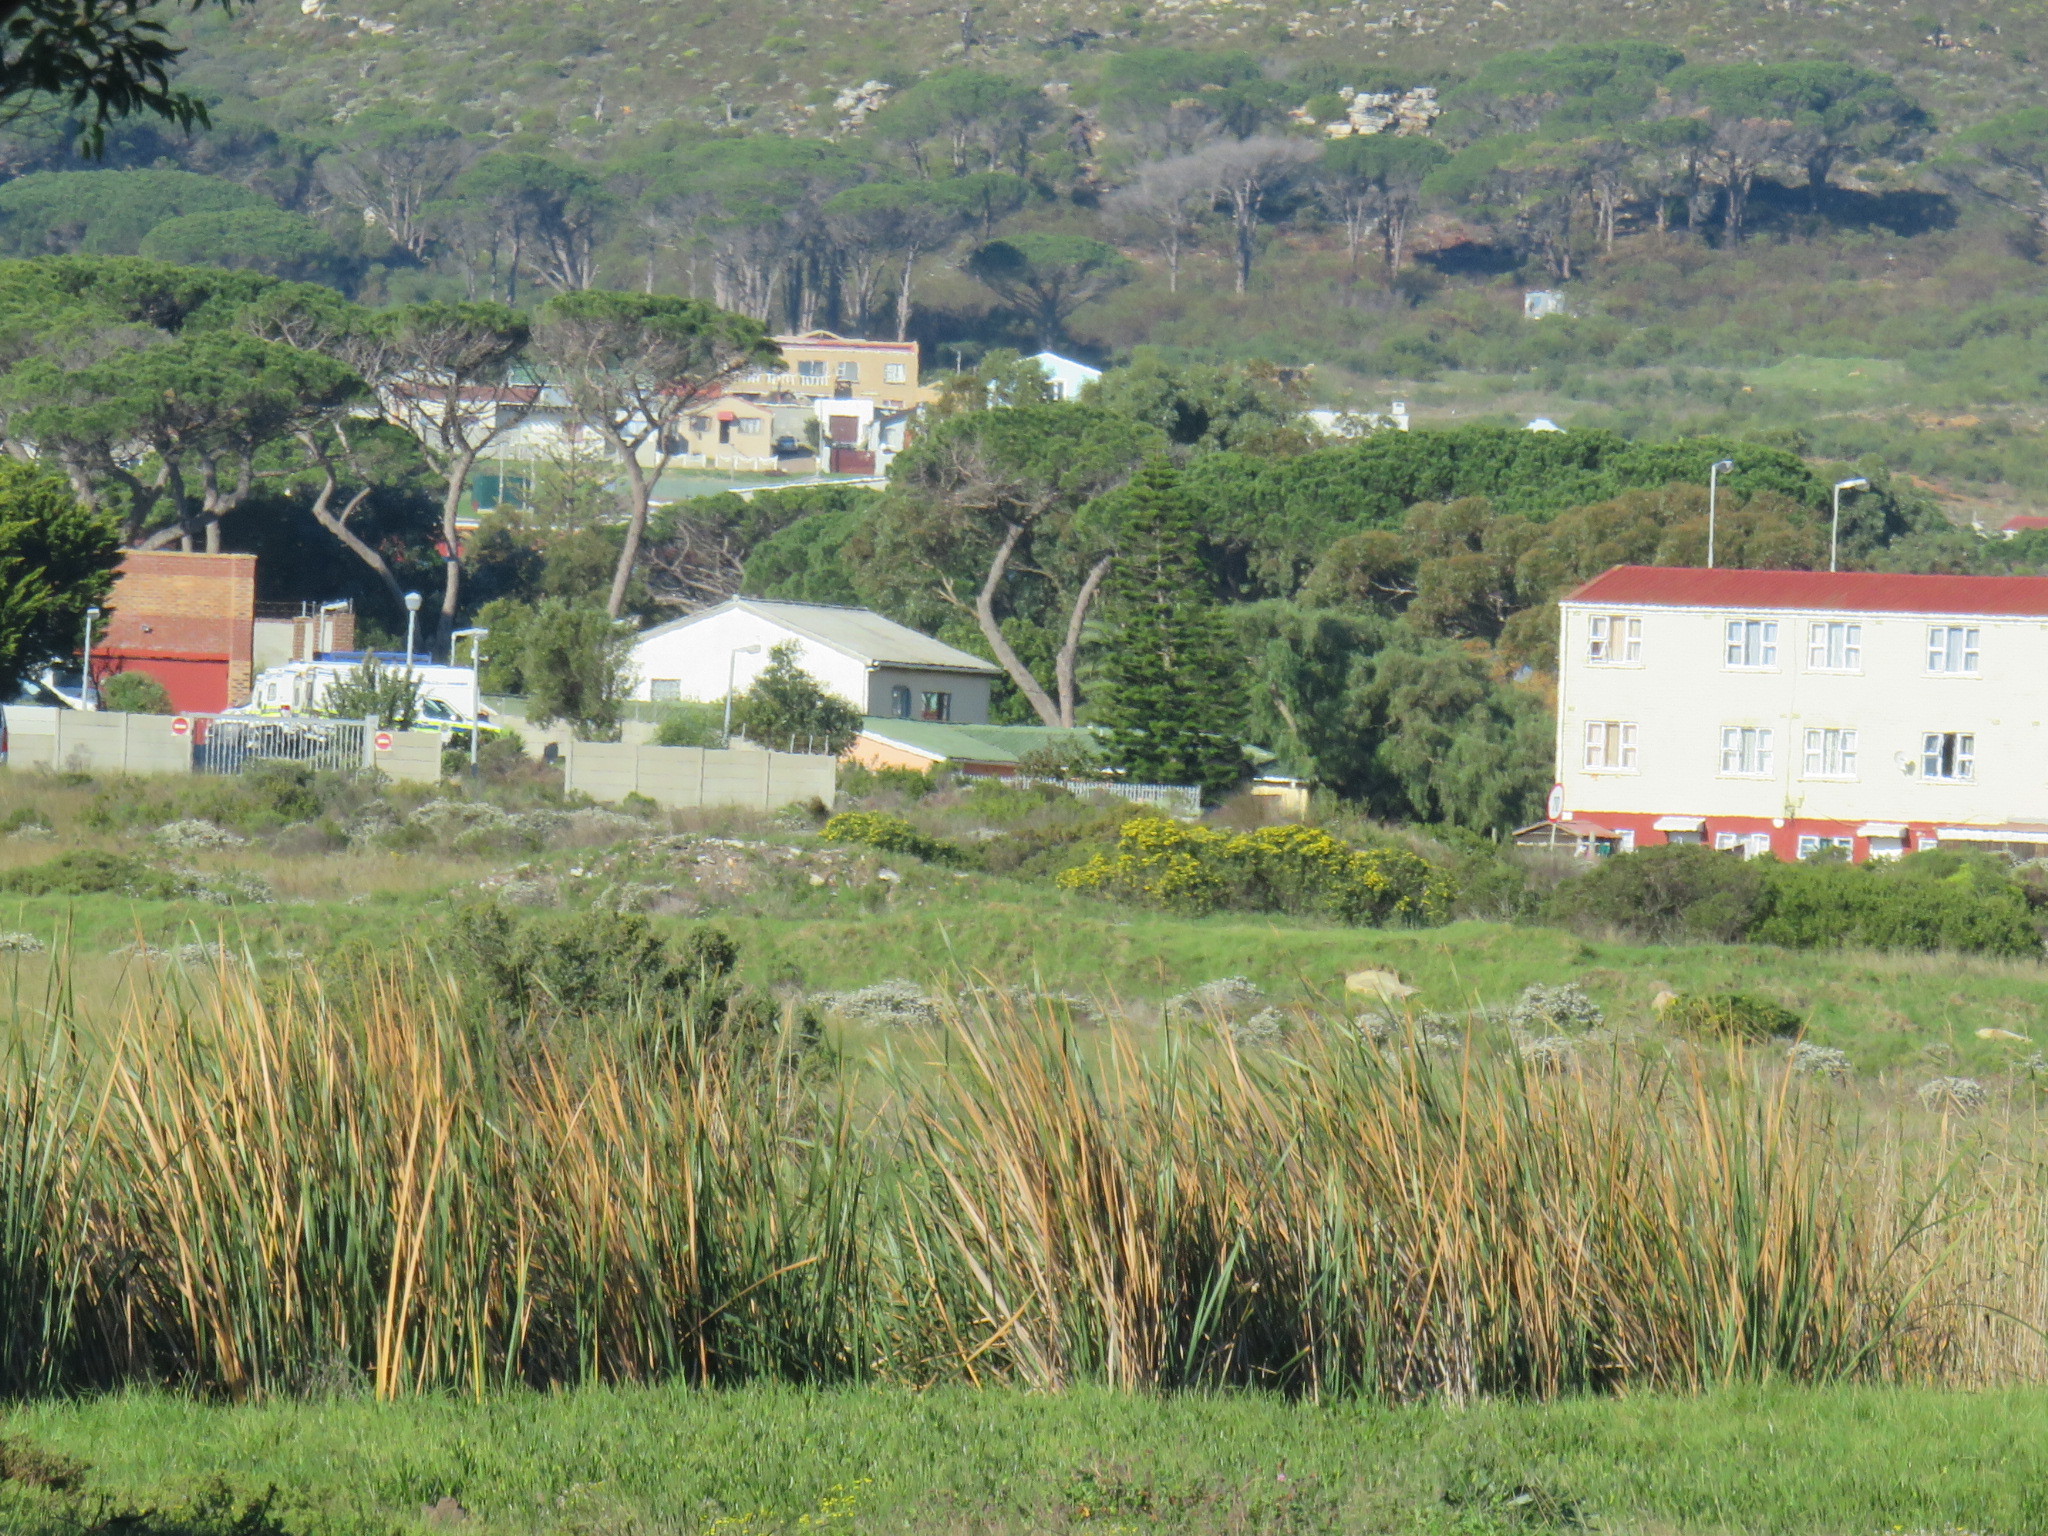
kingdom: Plantae
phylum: Tracheophyta
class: Liliopsida
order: Poales
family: Typhaceae
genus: Typha
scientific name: Typha capensis
